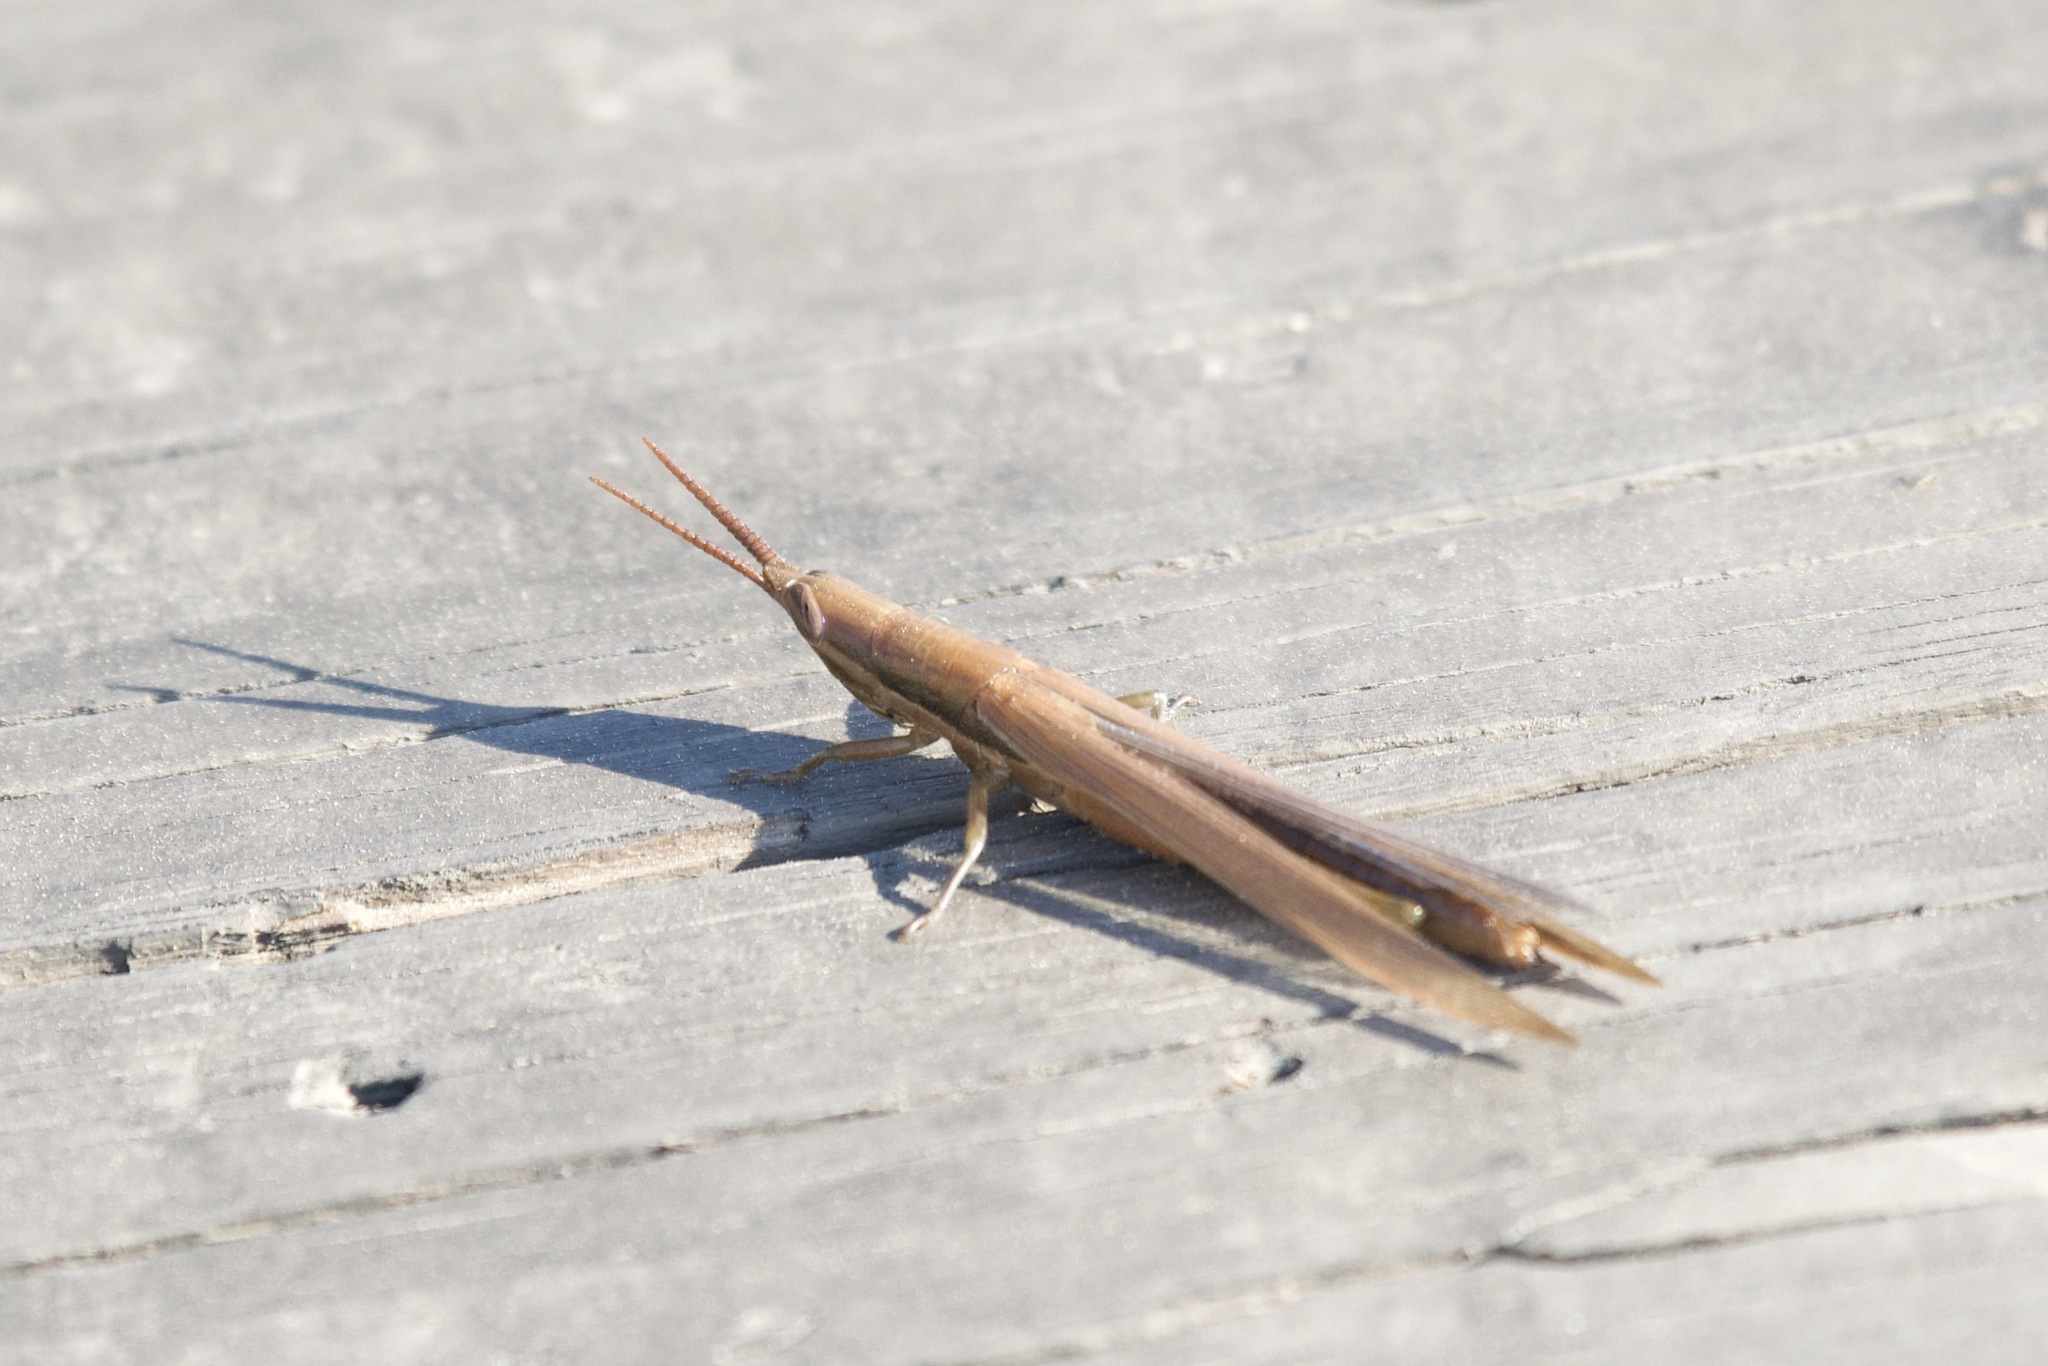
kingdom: Animalia
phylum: Arthropoda
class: Insecta
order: Orthoptera
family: Acrididae
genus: Leptysma
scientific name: Leptysma marginicollis
